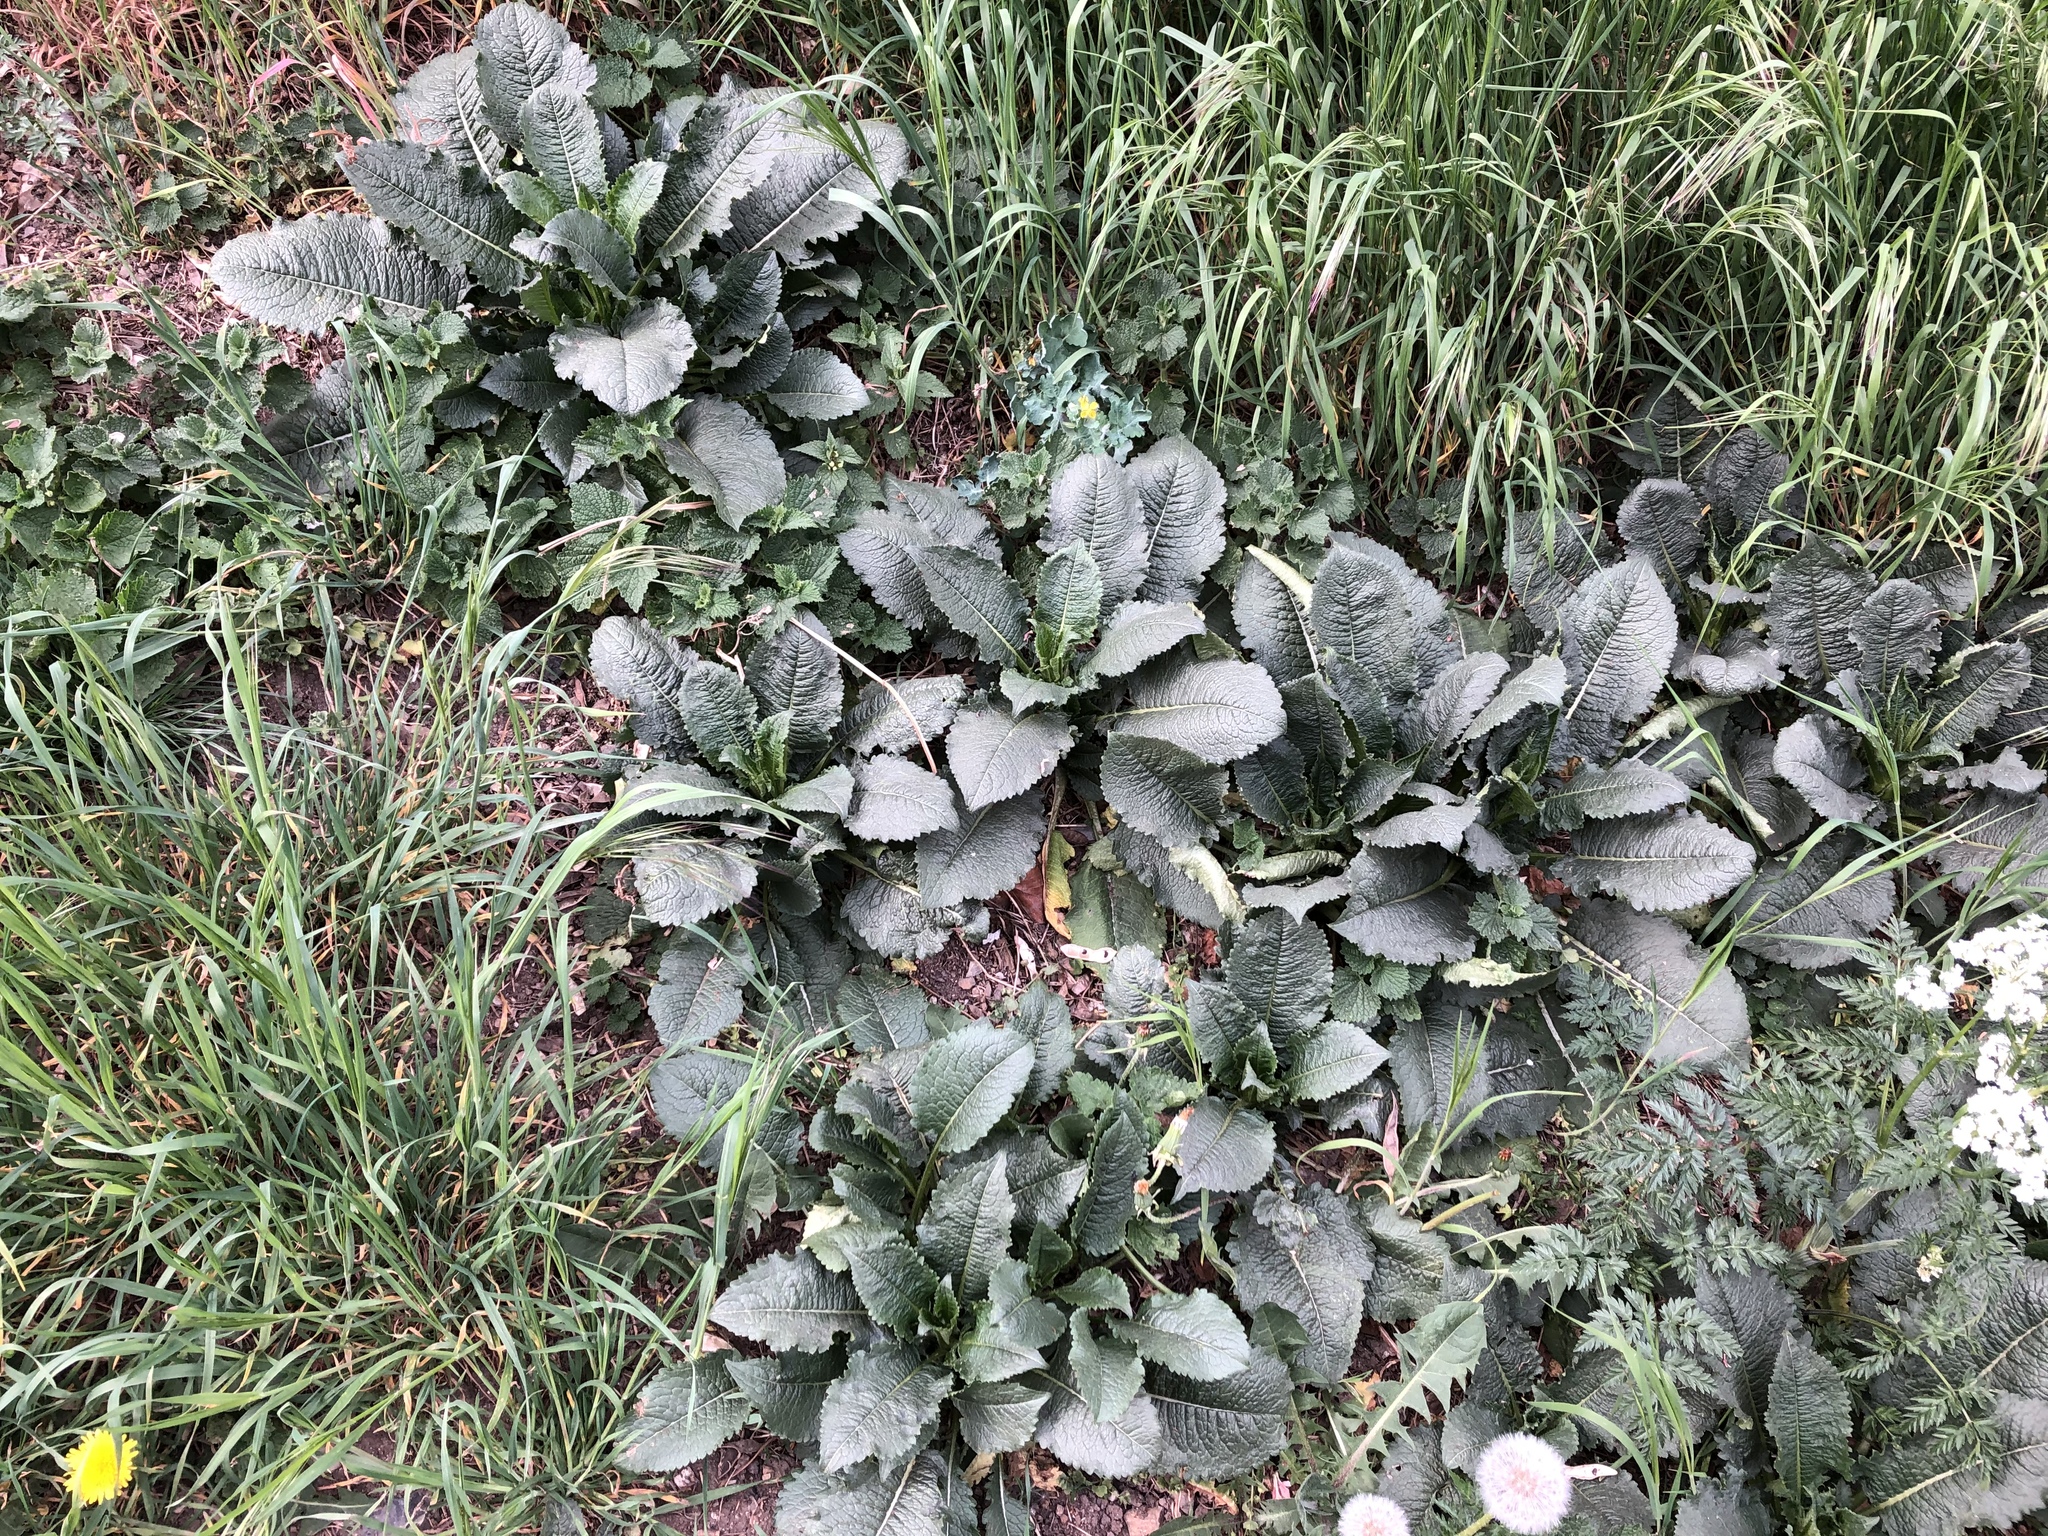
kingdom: Plantae
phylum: Tracheophyta
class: Magnoliopsida
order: Dipsacales
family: Caprifoliaceae
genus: Dipsacus
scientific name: Dipsacus strigosus
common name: Yellow-flowered teasel
